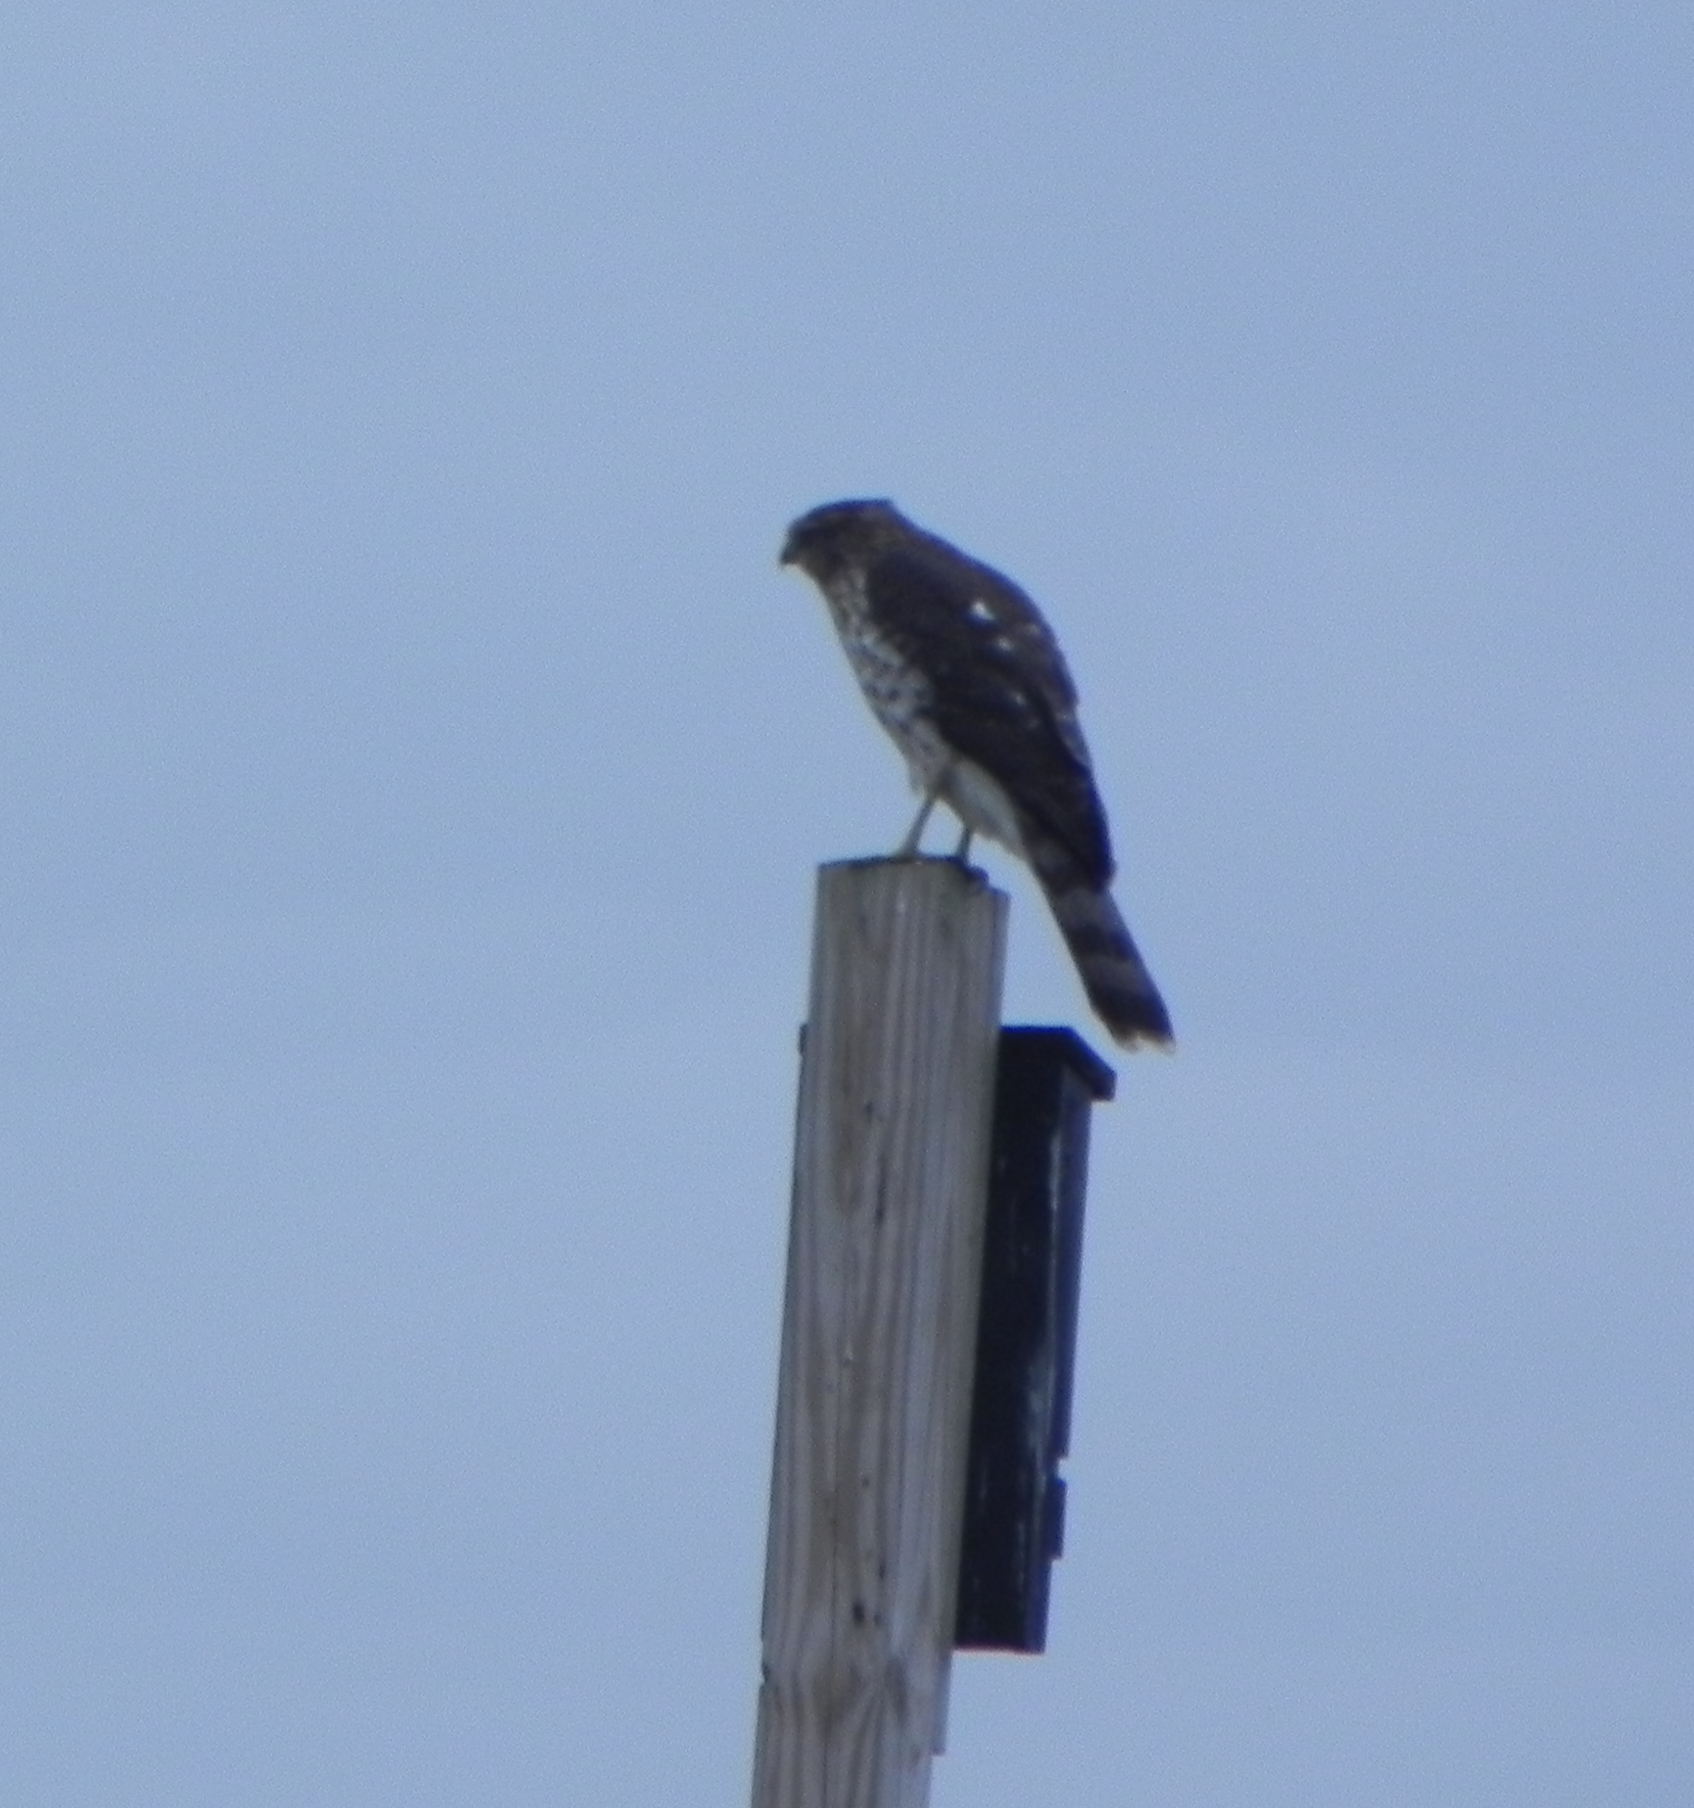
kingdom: Animalia
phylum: Chordata
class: Aves
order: Accipitriformes
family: Accipitridae
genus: Accipiter
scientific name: Accipiter cooperii
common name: Cooper's hawk
